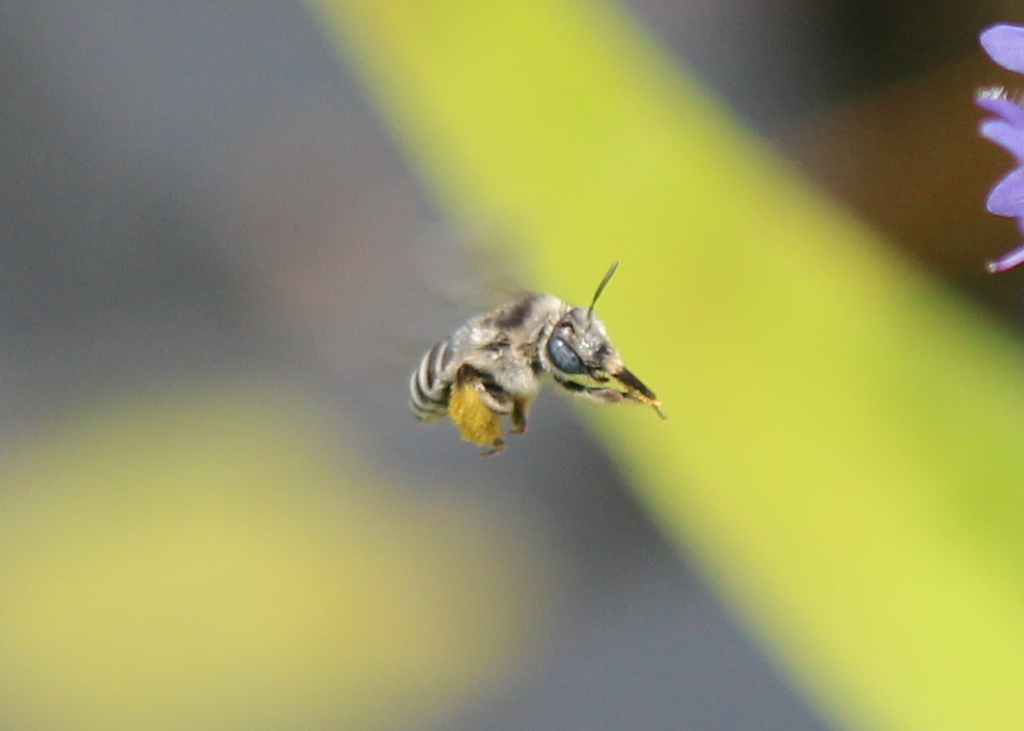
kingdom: Animalia
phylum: Arthropoda
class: Insecta
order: Hymenoptera
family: Apidae
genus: Melissodes
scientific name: Melissodes apicatus
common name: Pickerelweed long-horned bee
